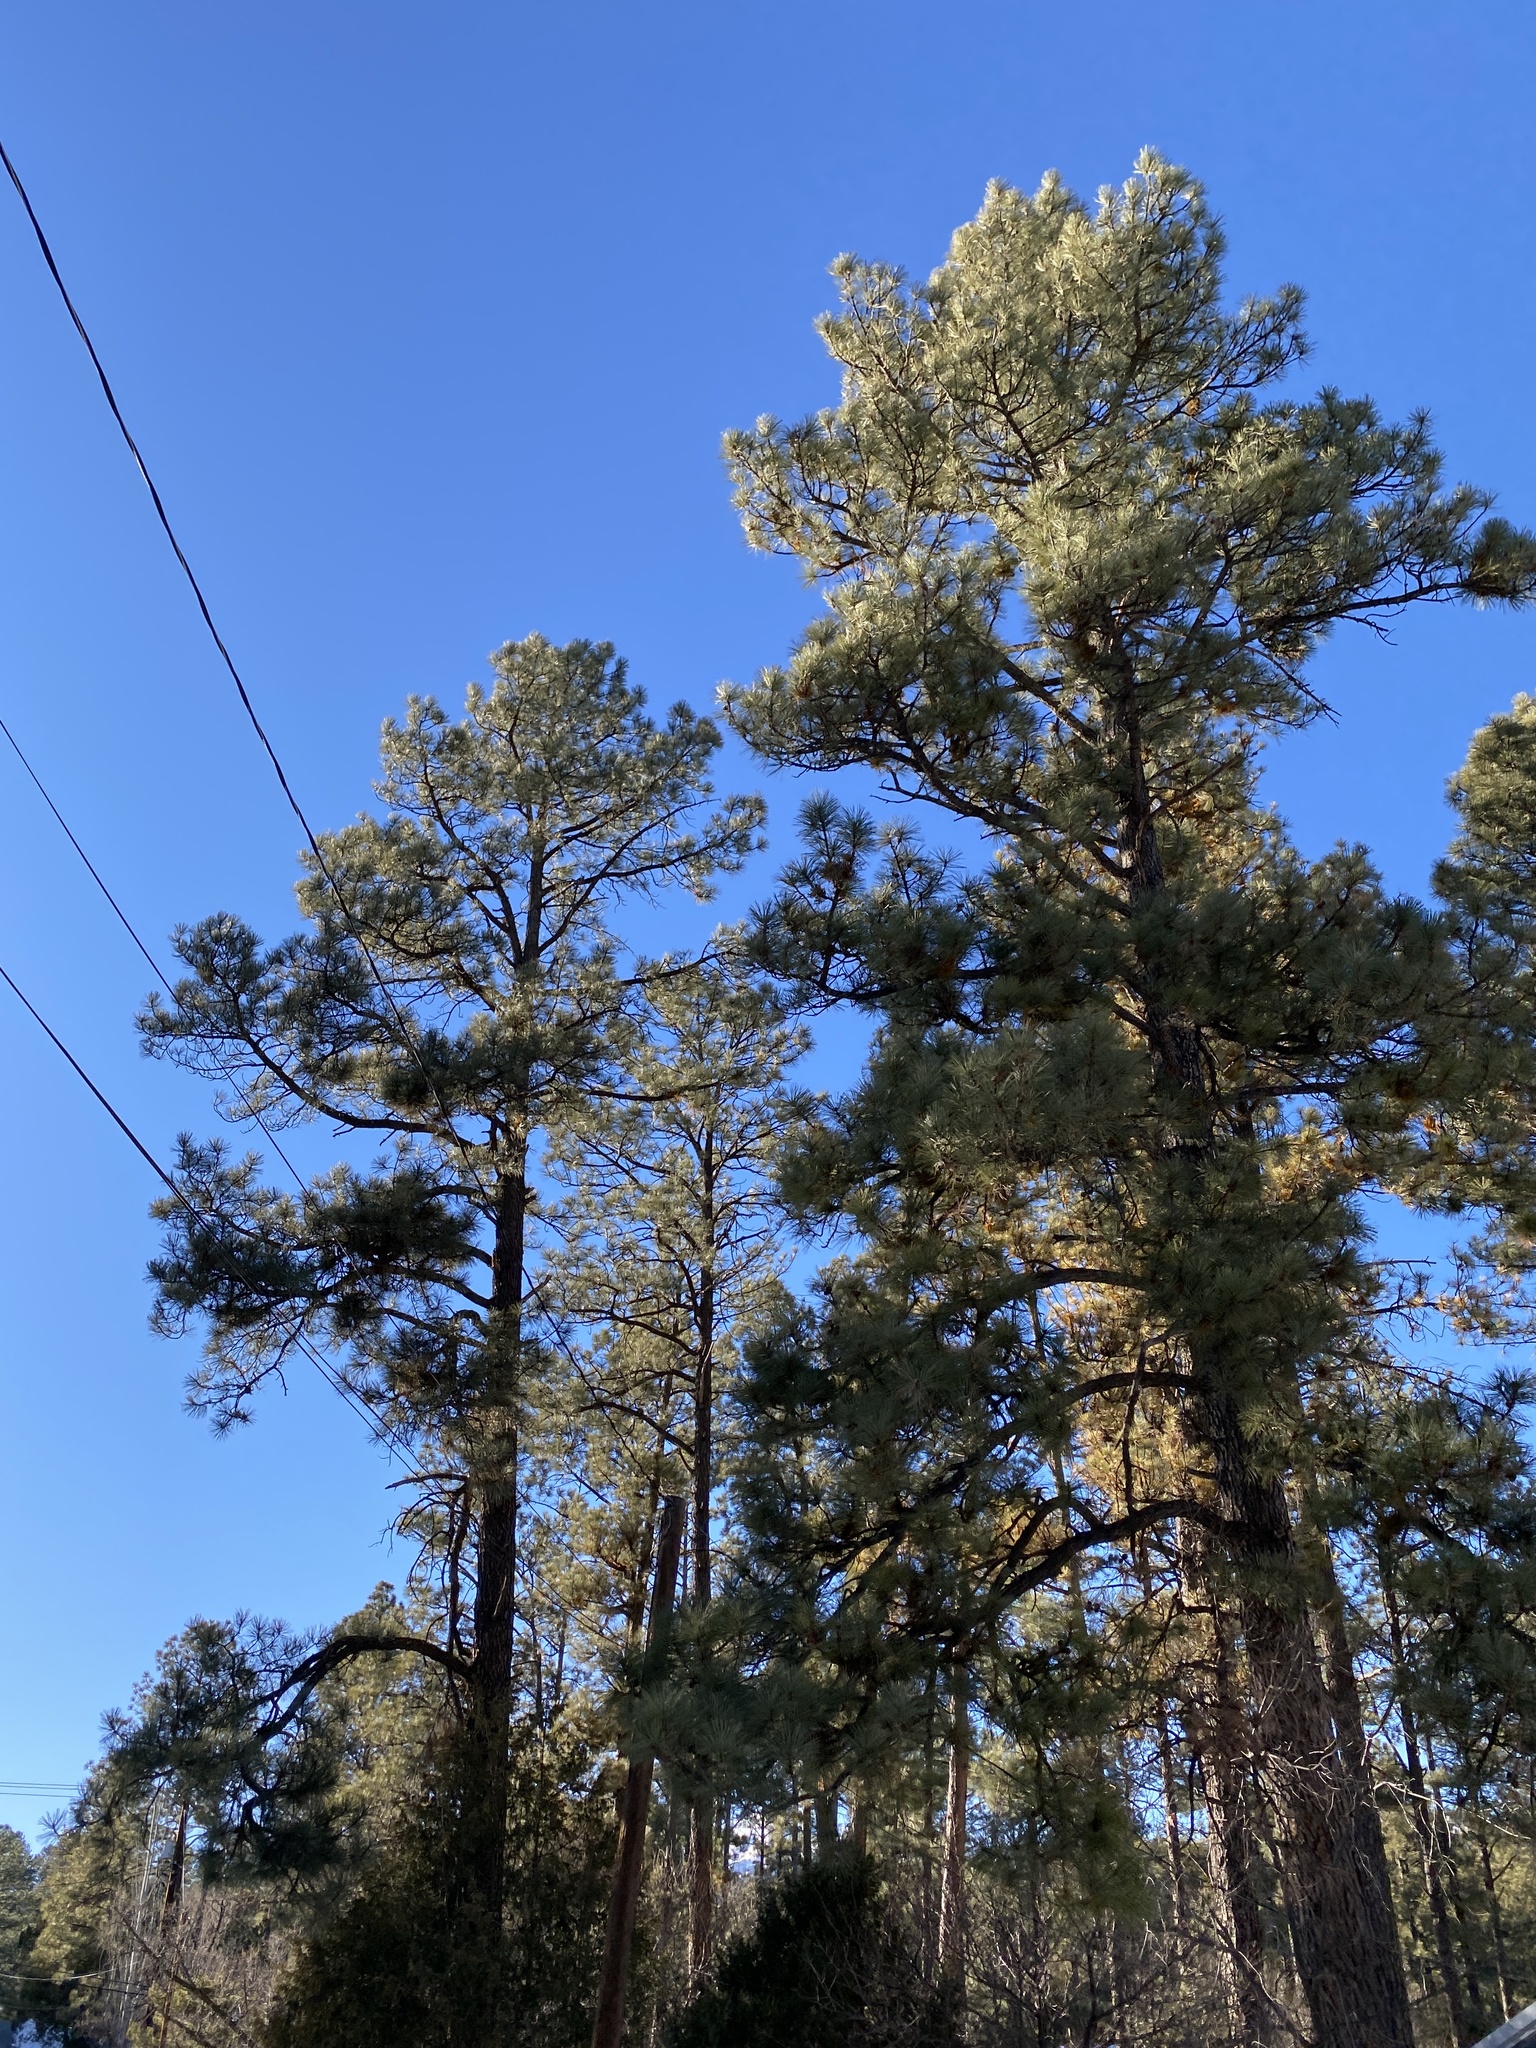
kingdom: Plantae
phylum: Tracheophyta
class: Pinopsida
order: Pinales
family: Pinaceae
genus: Pinus
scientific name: Pinus ponderosa
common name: Western yellow-pine
